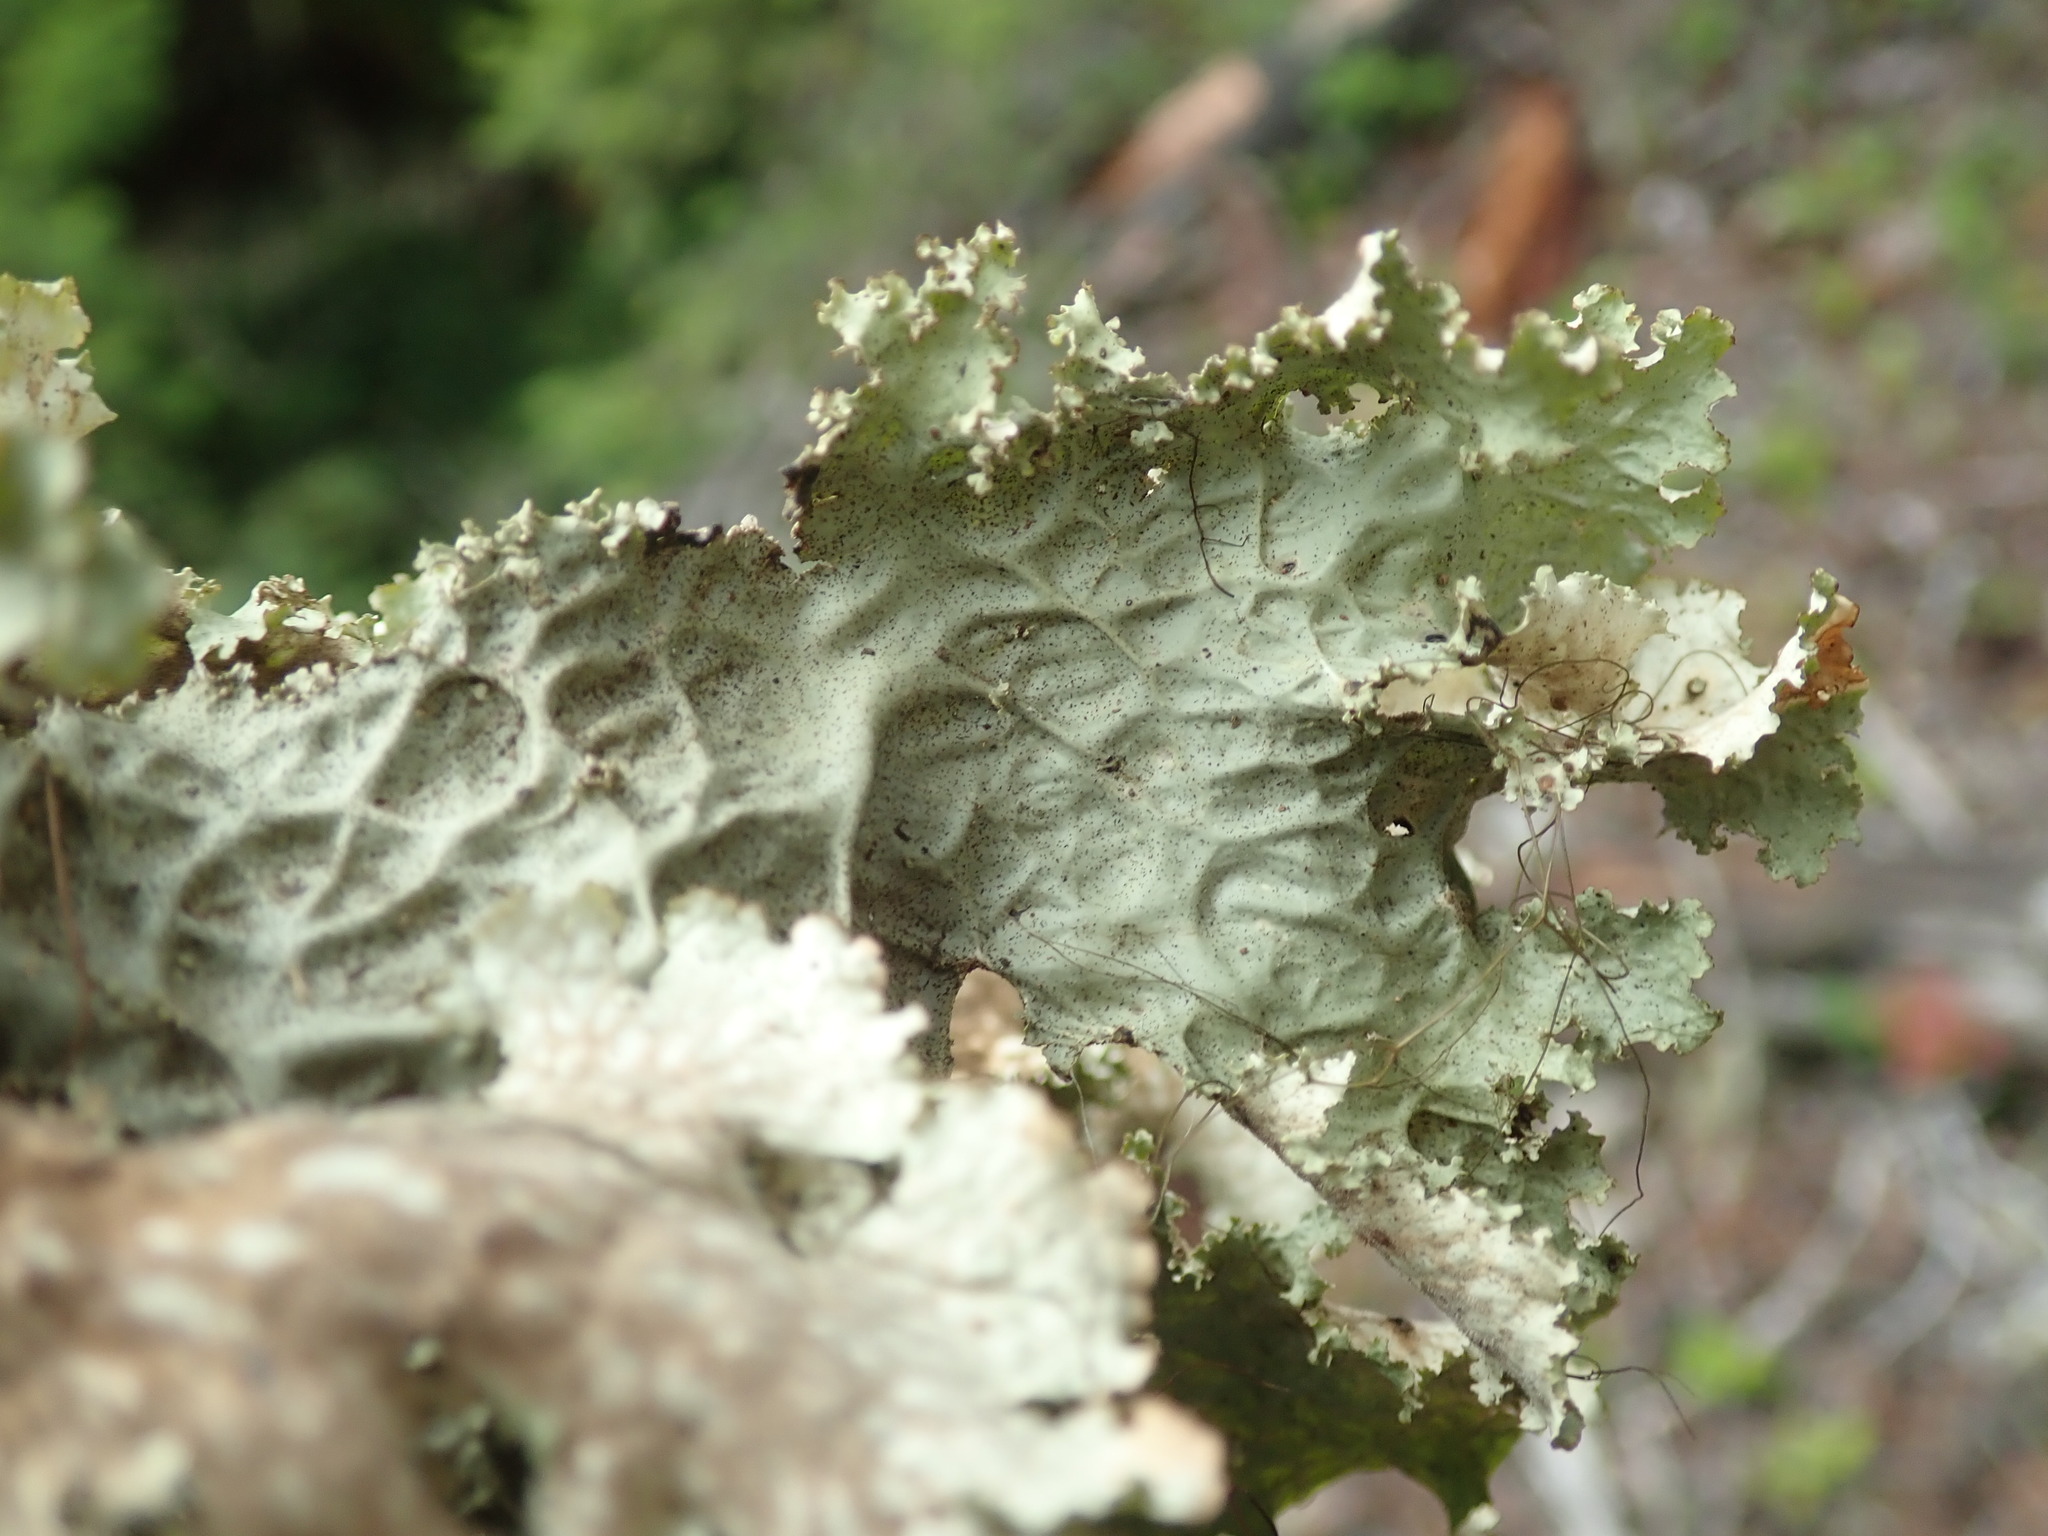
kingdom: Fungi
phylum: Ascomycota
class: Lecanoromycetes
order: Peltigerales
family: Lobariaceae
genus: Lobaria
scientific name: Lobaria oregana
